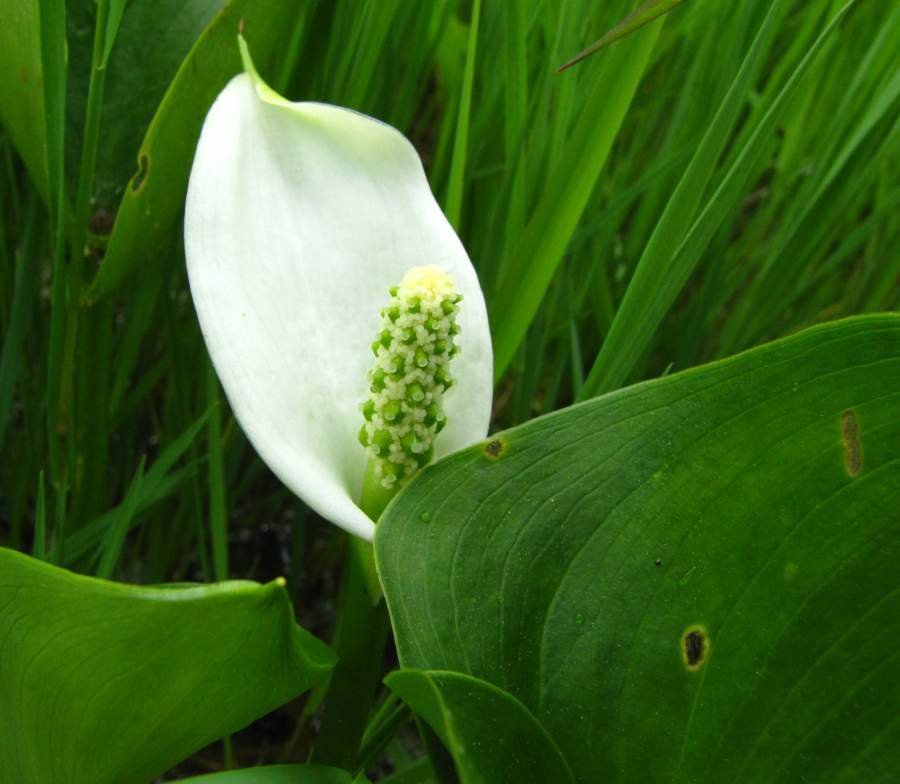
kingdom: Plantae
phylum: Tracheophyta
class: Liliopsida
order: Alismatales
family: Araceae
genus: Calla
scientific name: Calla palustris
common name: Bog arum
